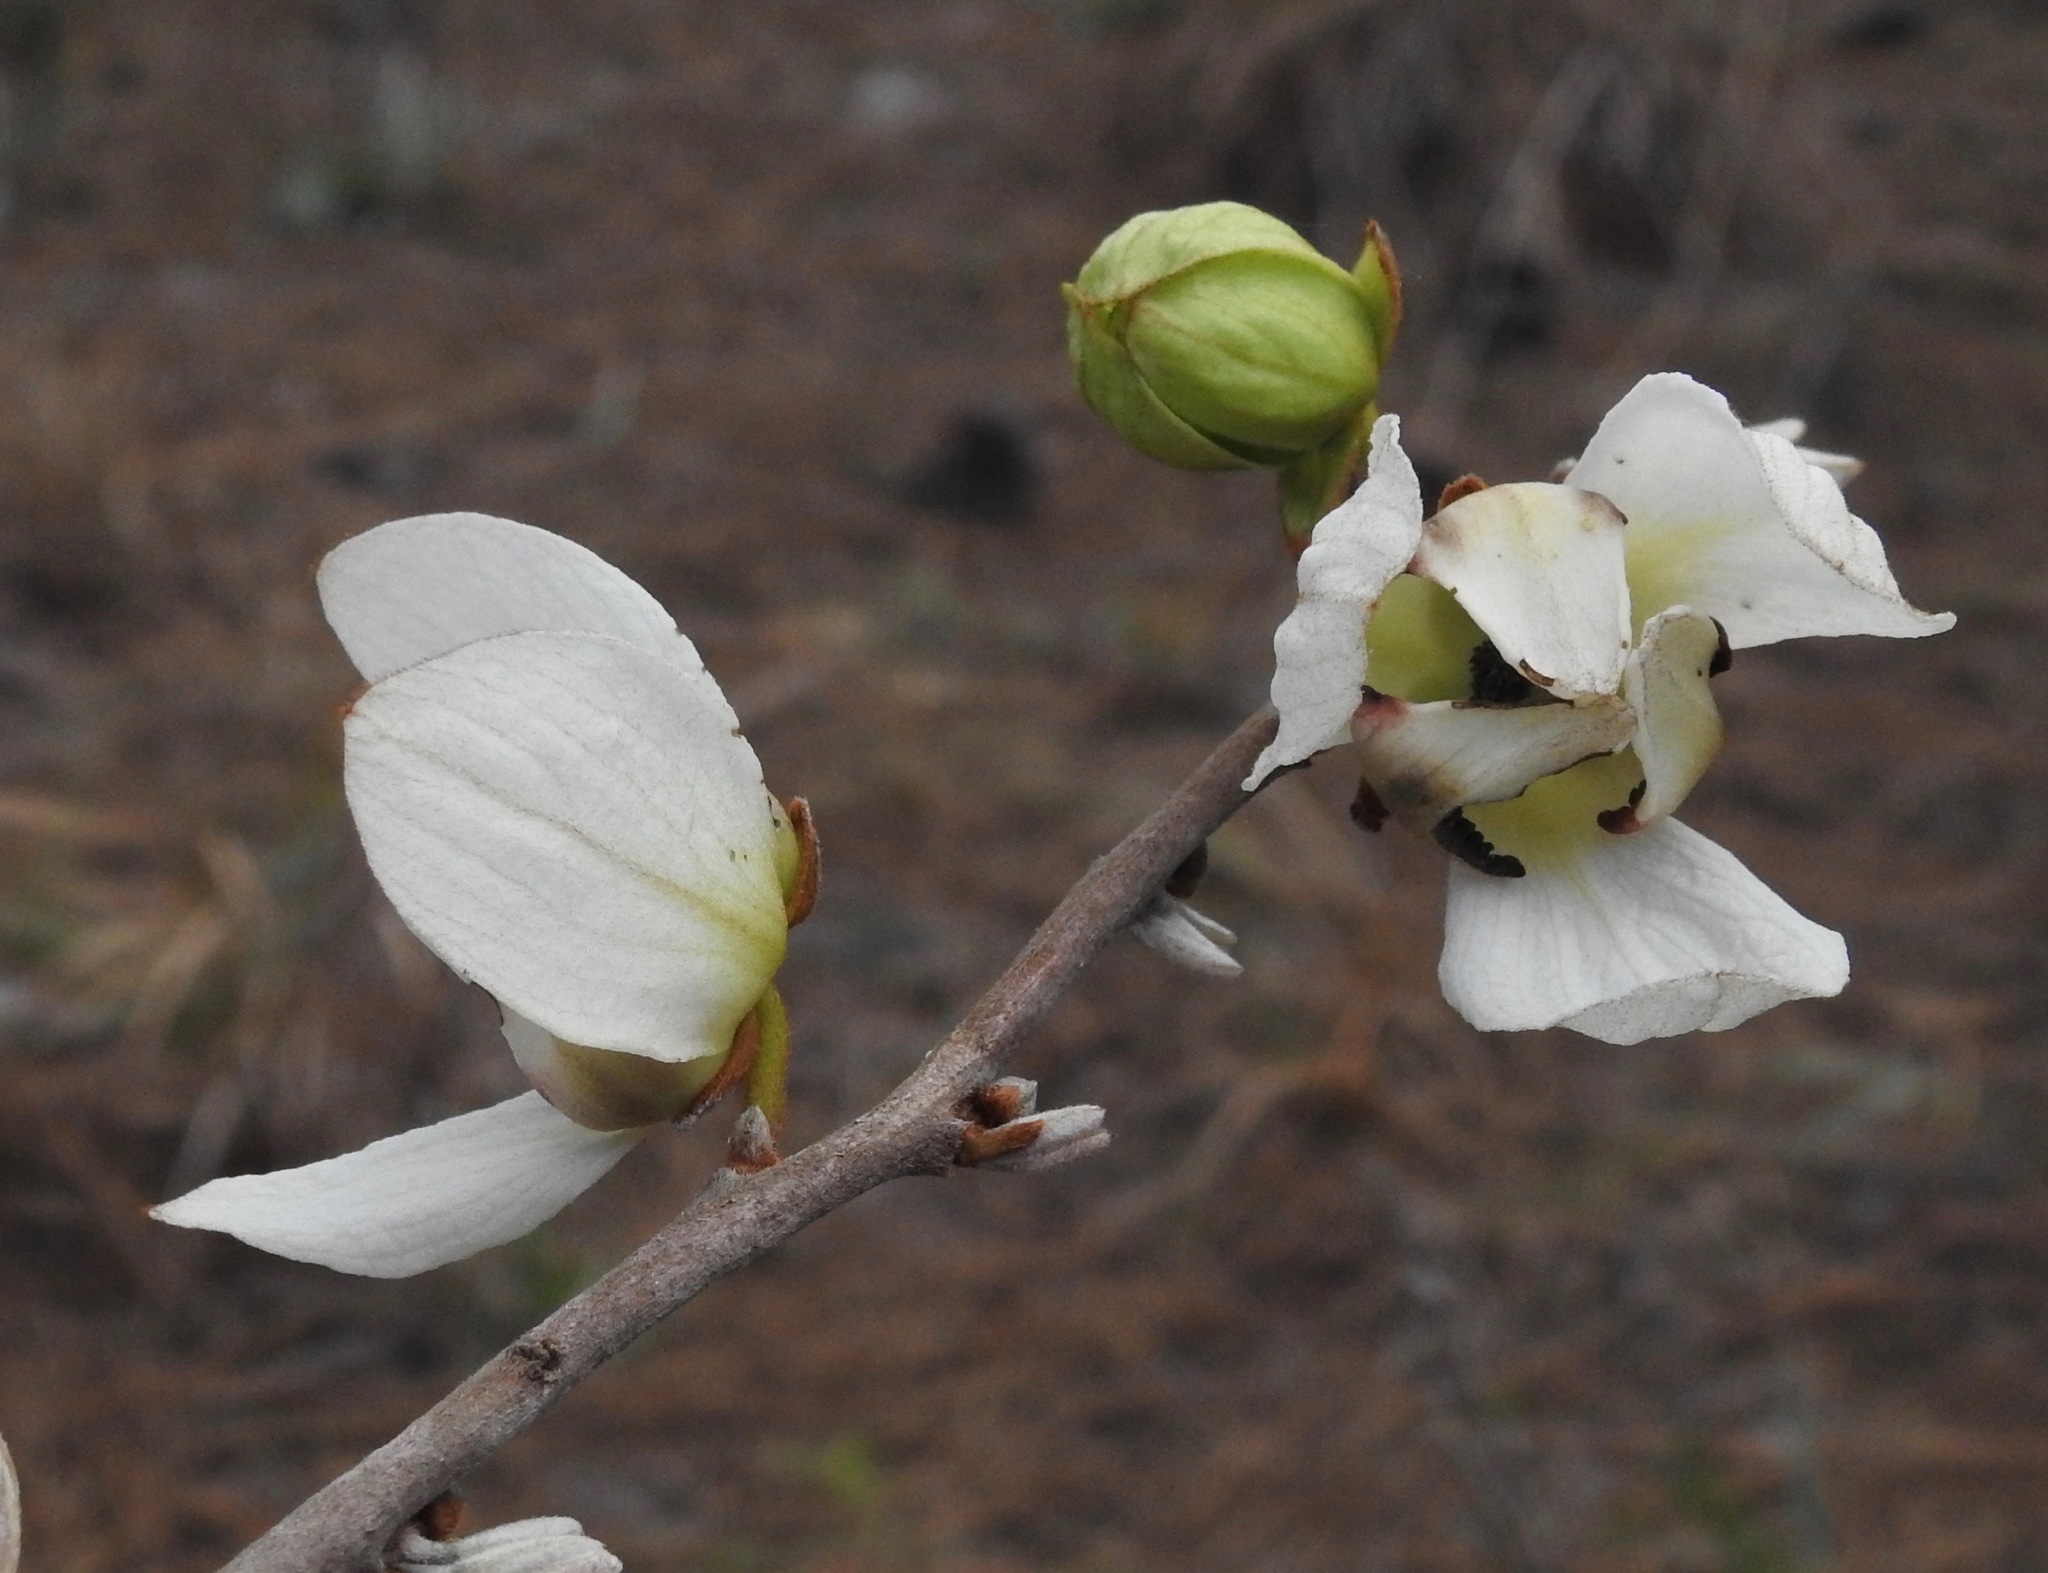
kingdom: Plantae
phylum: Tracheophyta
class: Magnoliopsida
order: Magnoliales
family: Annonaceae
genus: Asimina
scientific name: Asimina reticulata
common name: Flag pawpaw
